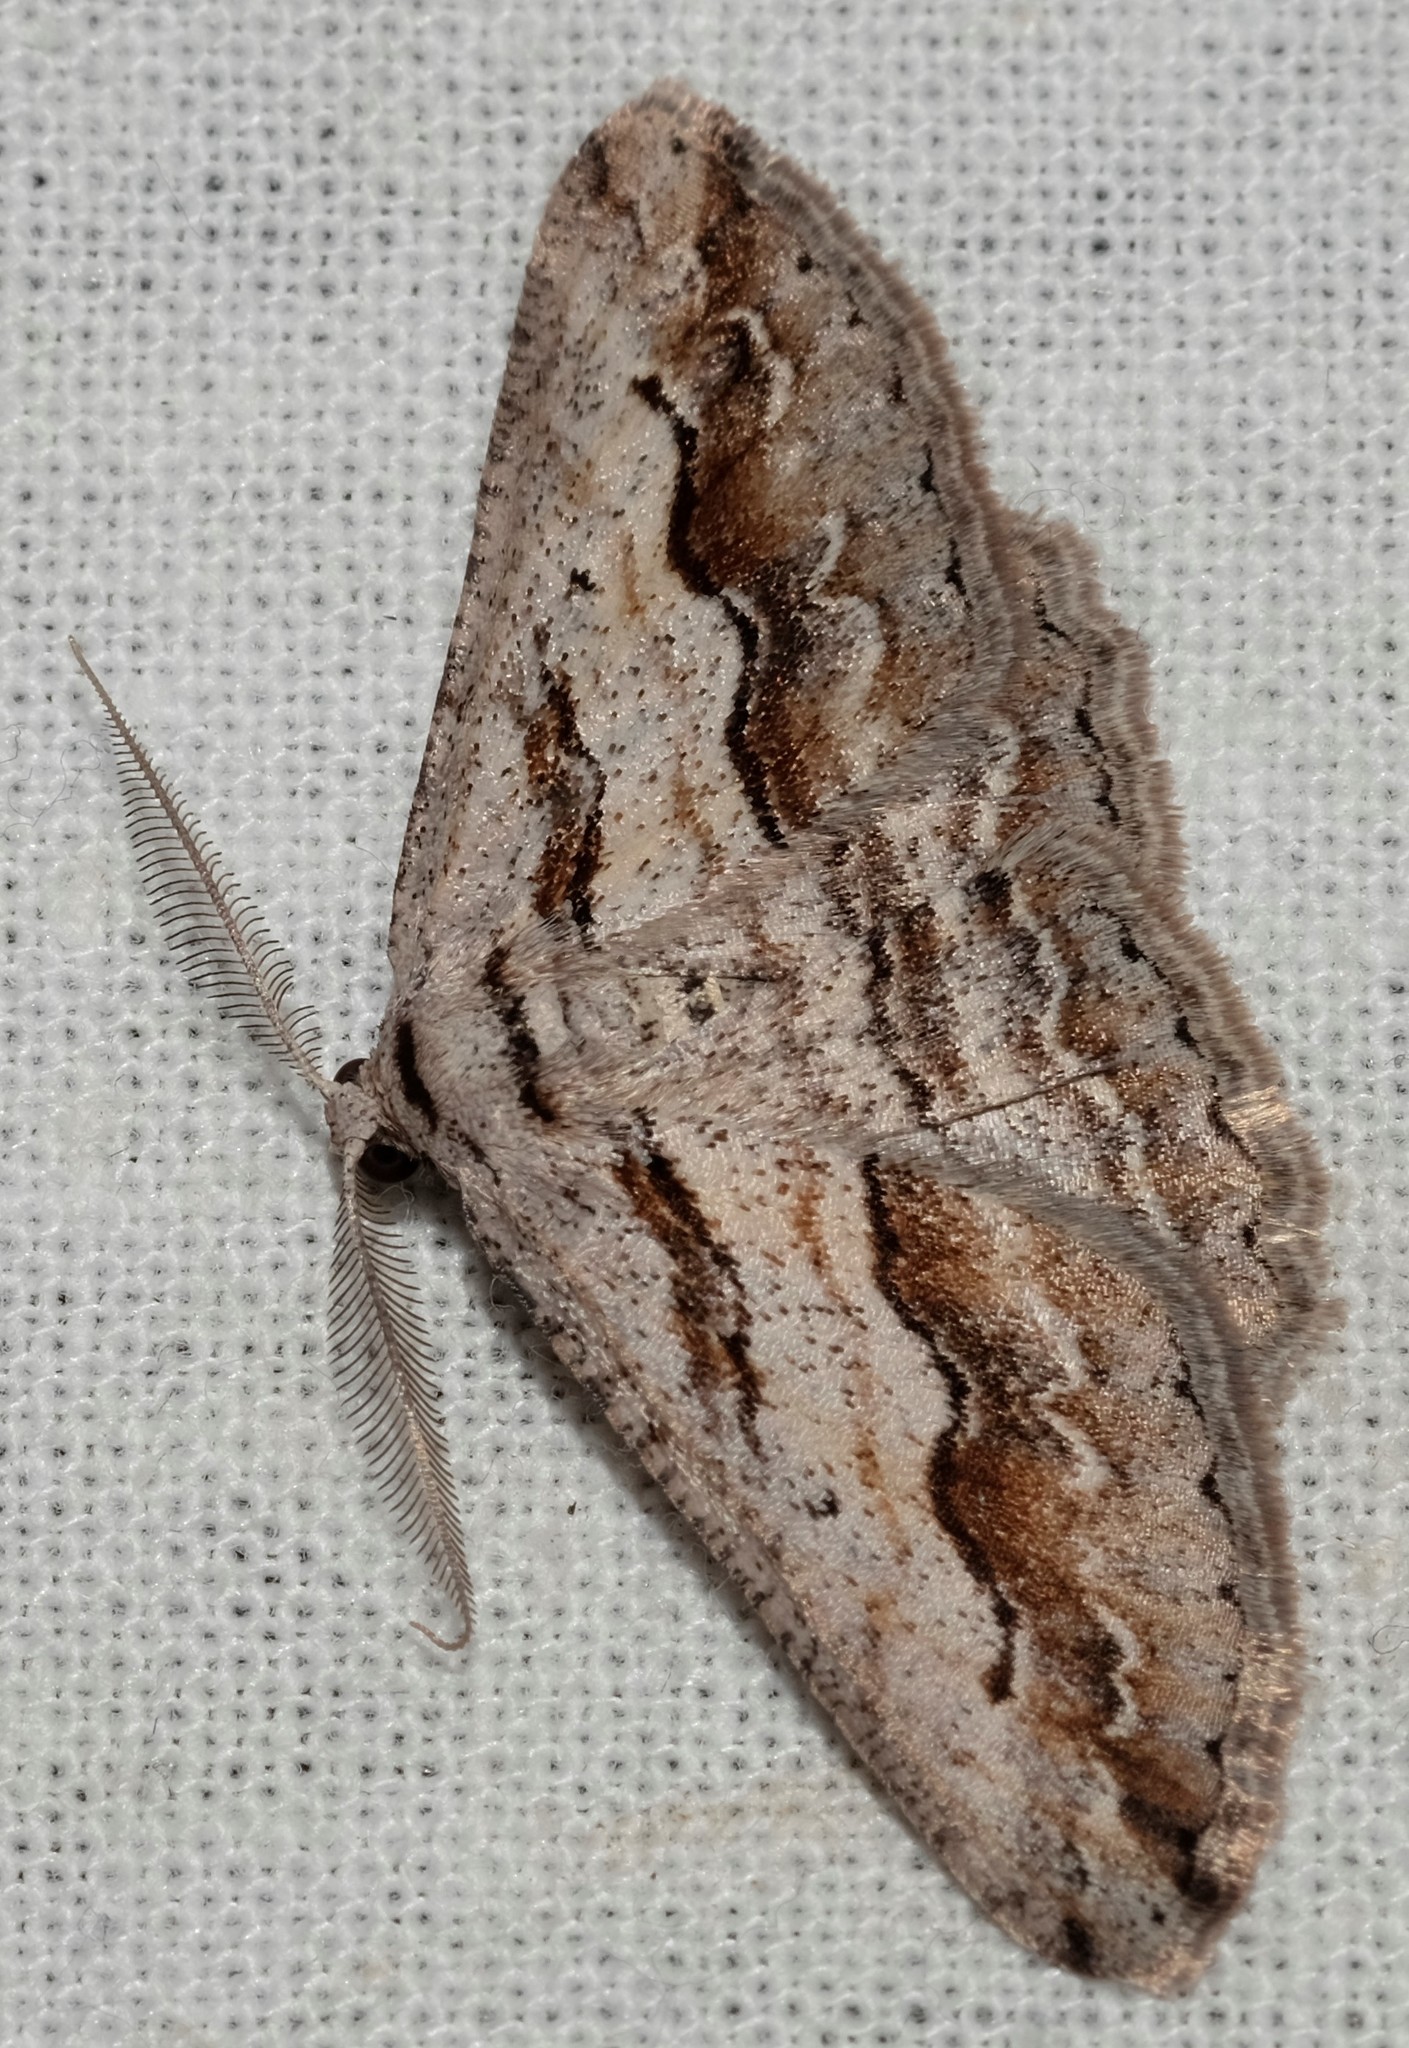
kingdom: Animalia
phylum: Arthropoda
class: Insecta
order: Lepidoptera
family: Geometridae
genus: Syneora
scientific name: Syneora mundifera
